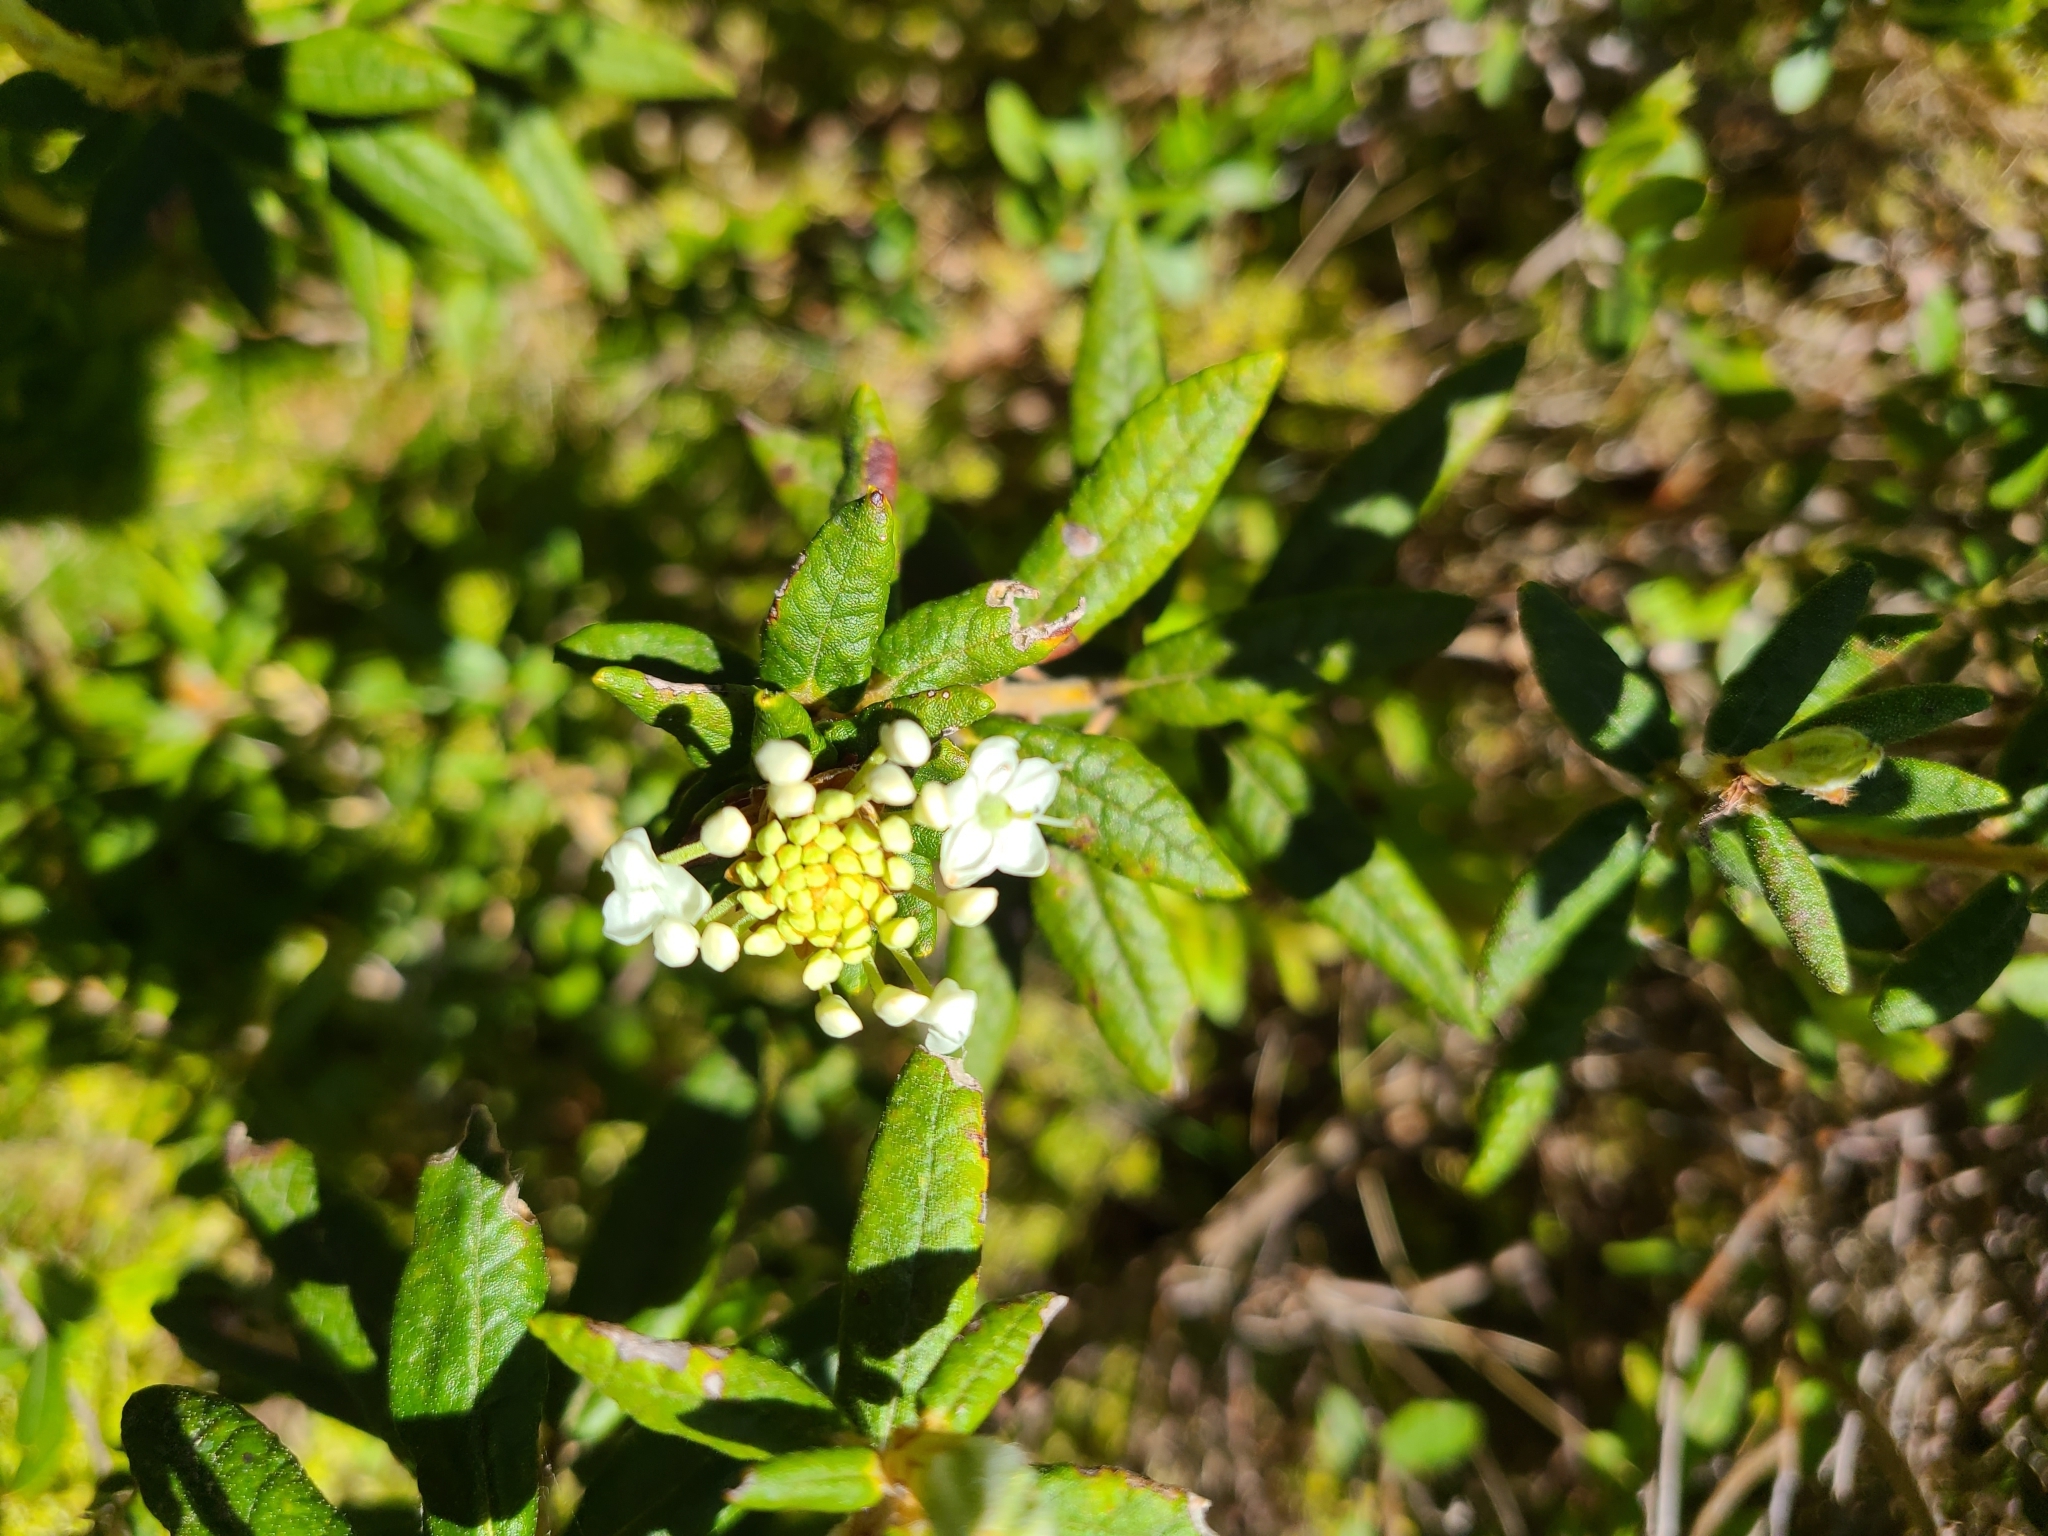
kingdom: Plantae
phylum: Tracheophyta
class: Magnoliopsida
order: Ericales
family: Ericaceae
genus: Rhododendron
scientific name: Rhododendron groenlandicum
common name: Bog labrador tea
